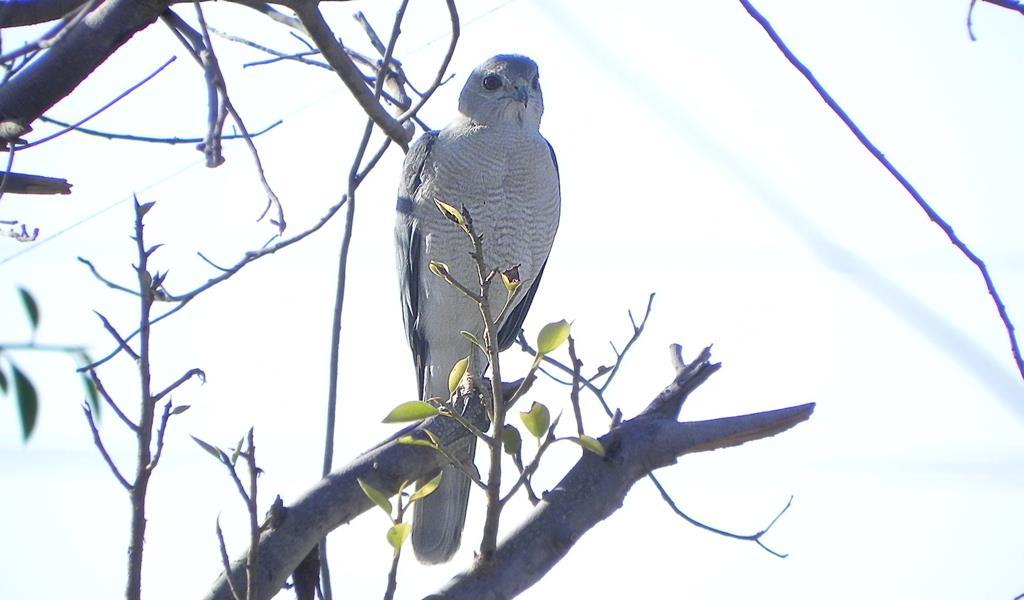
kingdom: Animalia
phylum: Chordata
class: Aves
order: Accipitriformes
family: Accipitridae
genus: Accipiter
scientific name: Accipiter badius
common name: Shikra
